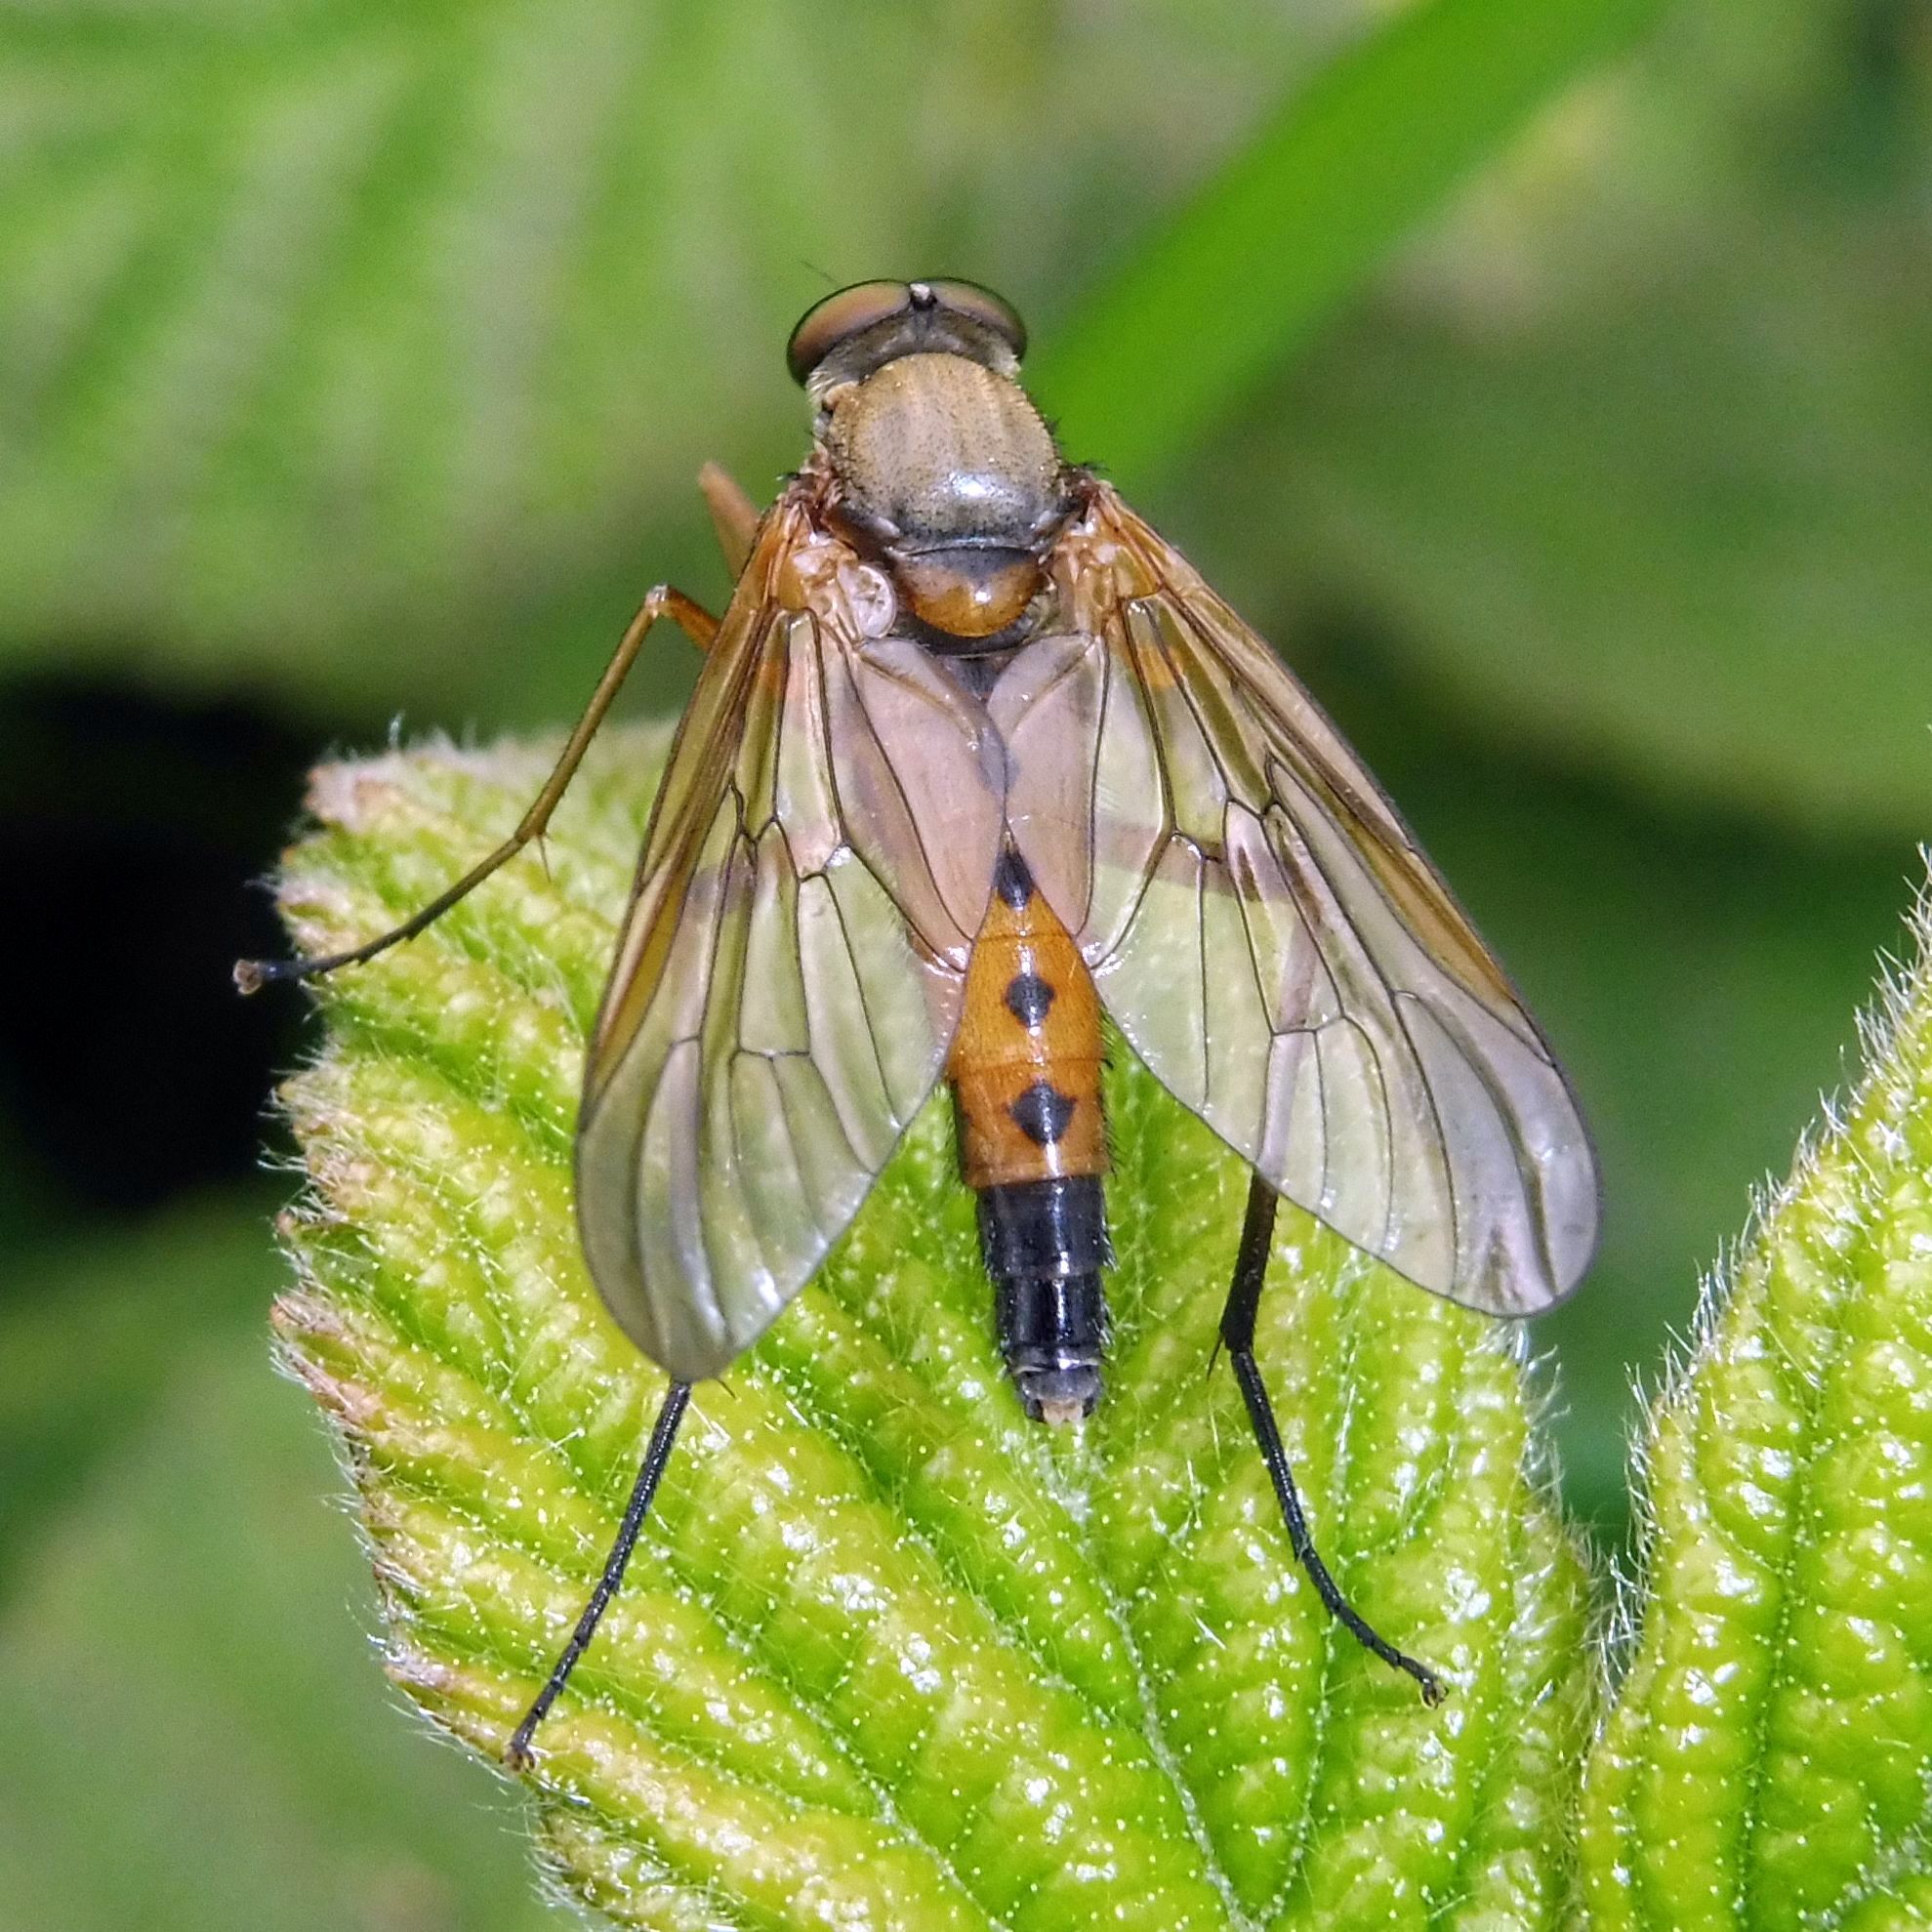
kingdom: Animalia
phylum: Arthropoda
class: Insecta
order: Diptera
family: Rhagionidae
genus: Rhagio
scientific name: Rhagio tringaria
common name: Marsh snipefly
